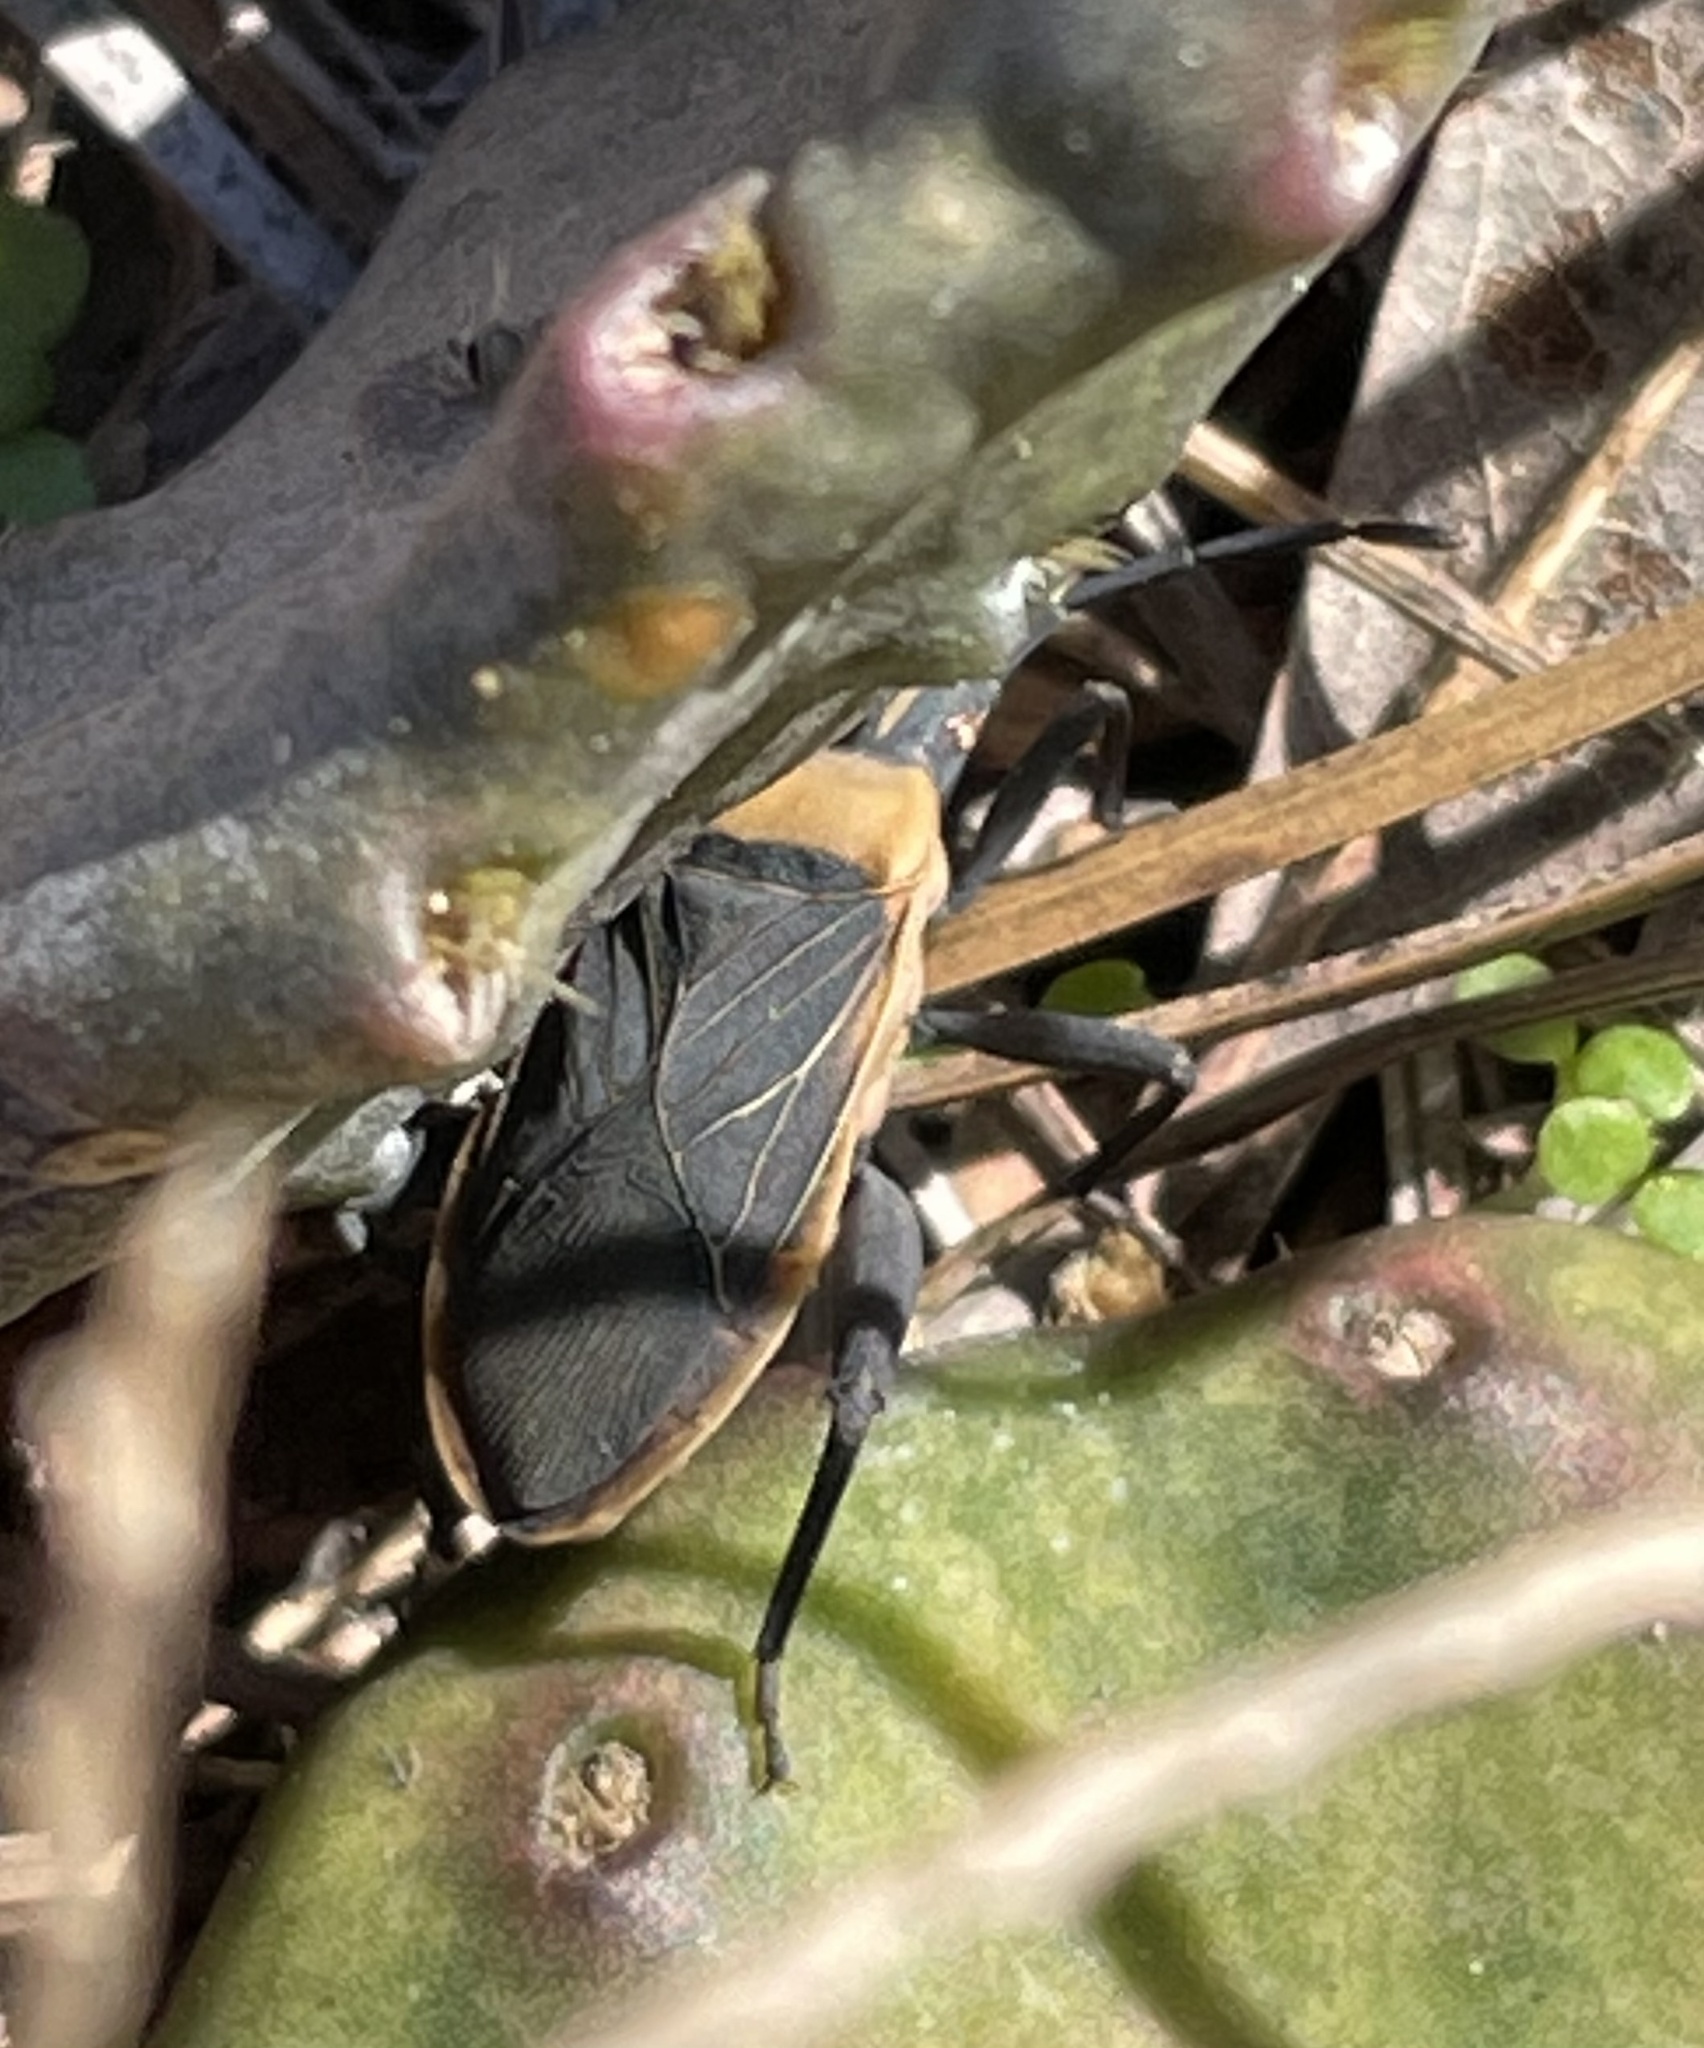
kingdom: Animalia
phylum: Arthropoda
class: Insecta
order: Hemiptera
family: Coreidae
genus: Chelinidea
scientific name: Chelinidea vittiger
